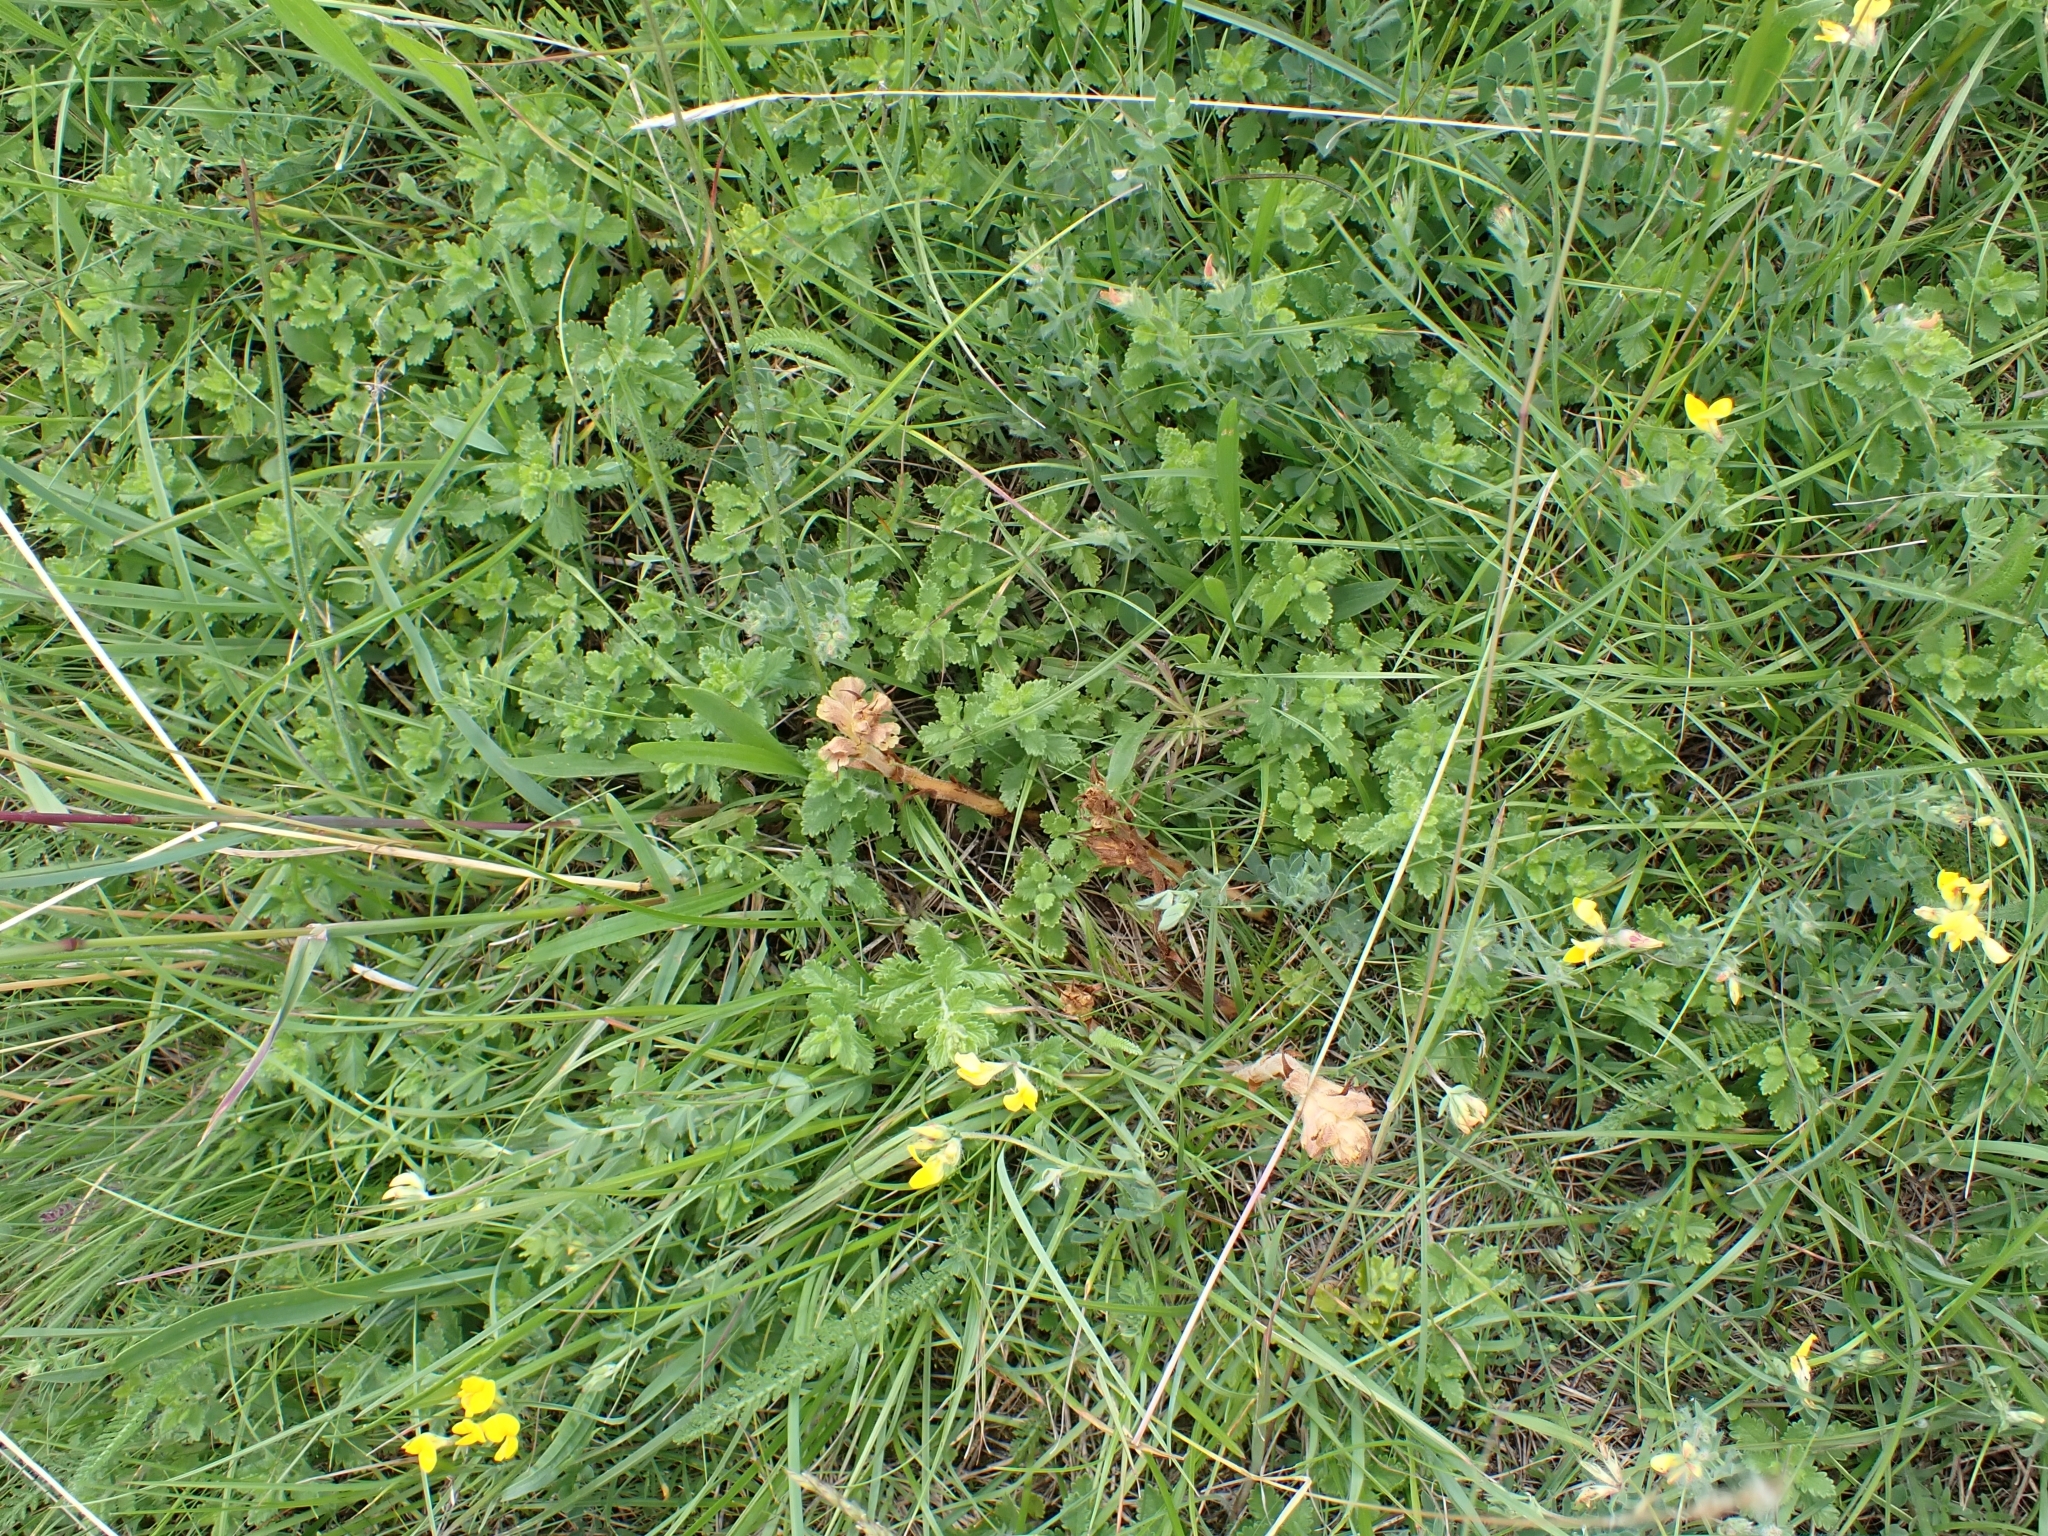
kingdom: Plantae
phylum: Tracheophyta
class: Magnoliopsida
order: Lamiales
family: Orobanchaceae
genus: Orobanche
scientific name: Orobanche teucrii
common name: Germander broomrape
